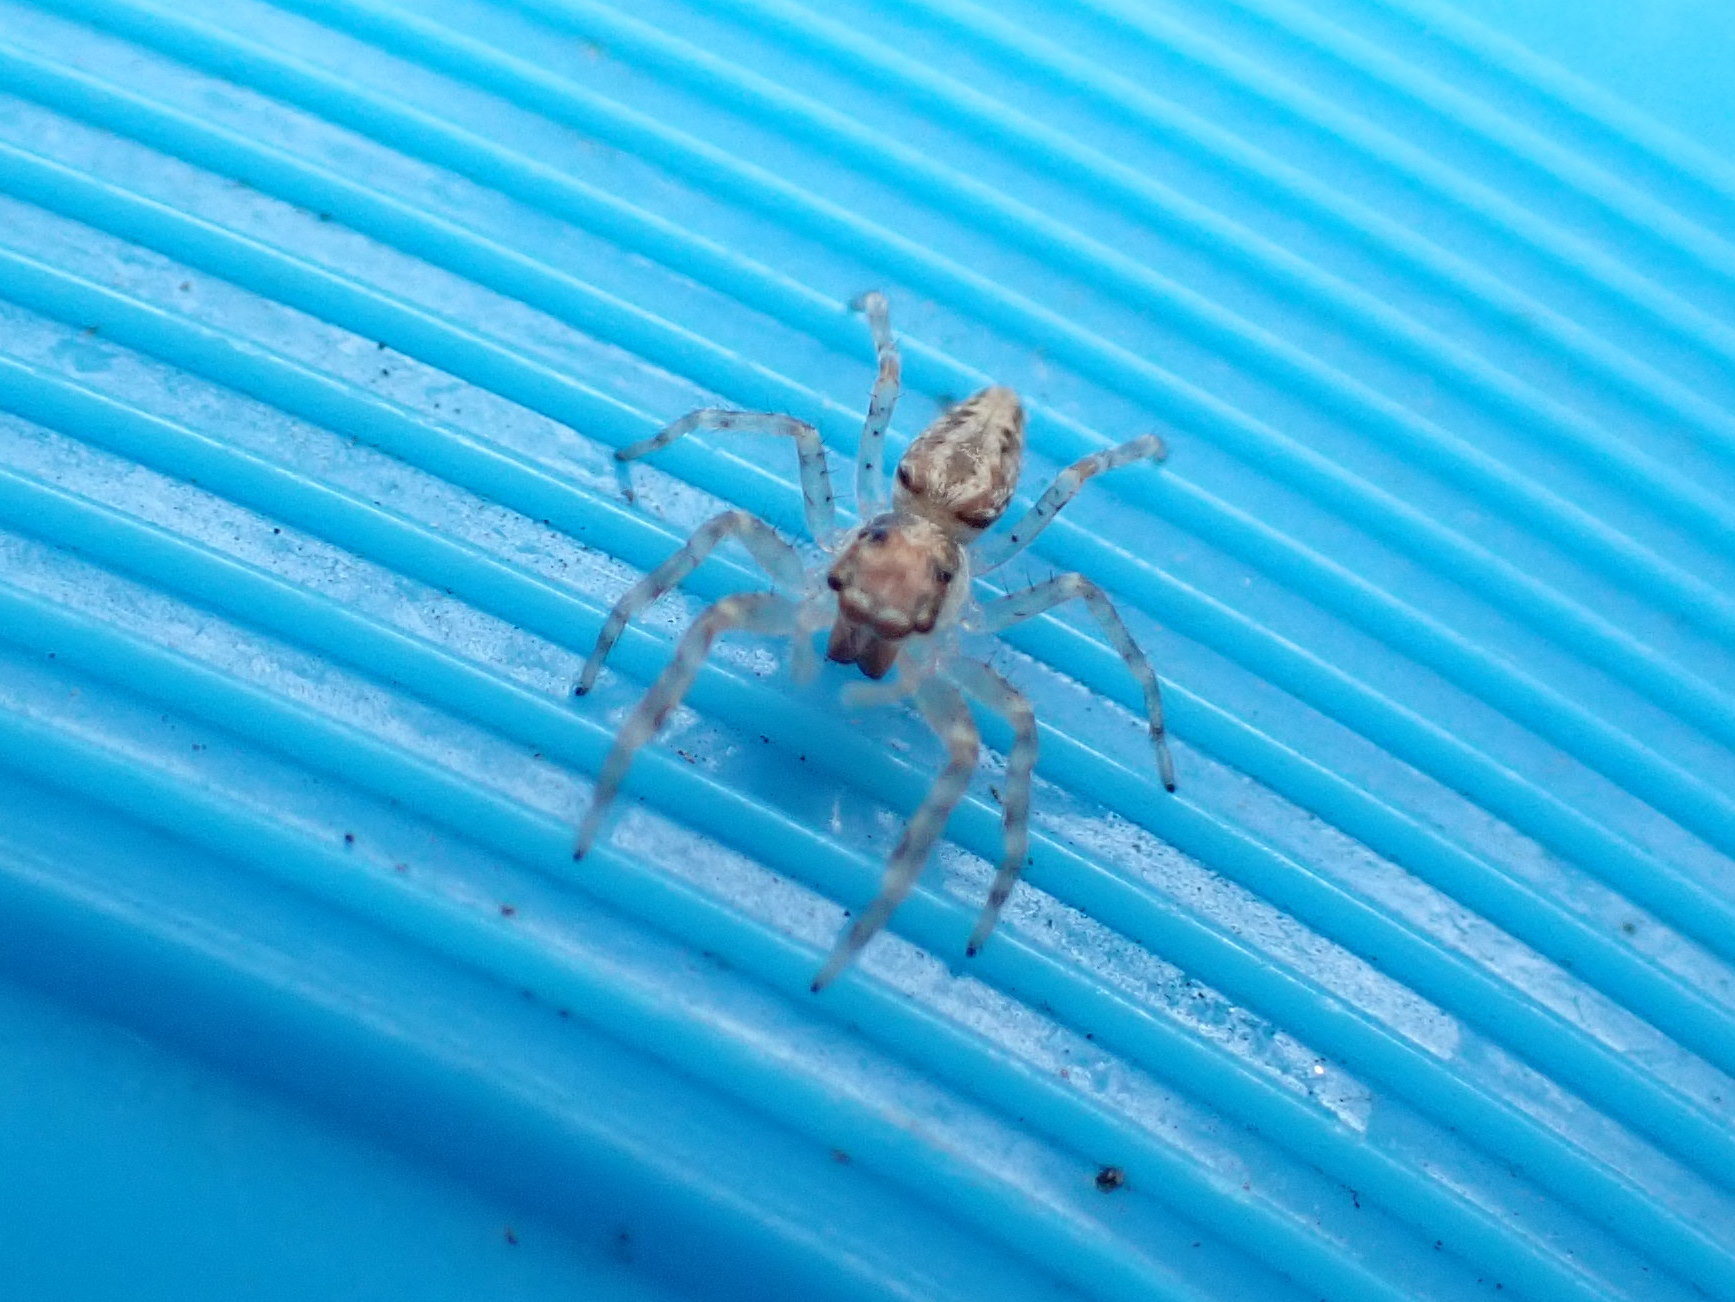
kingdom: Animalia
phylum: Arthropoda
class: Arachnida
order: Araneae
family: Salticidae
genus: Helpis
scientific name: Helpis minitabunda
